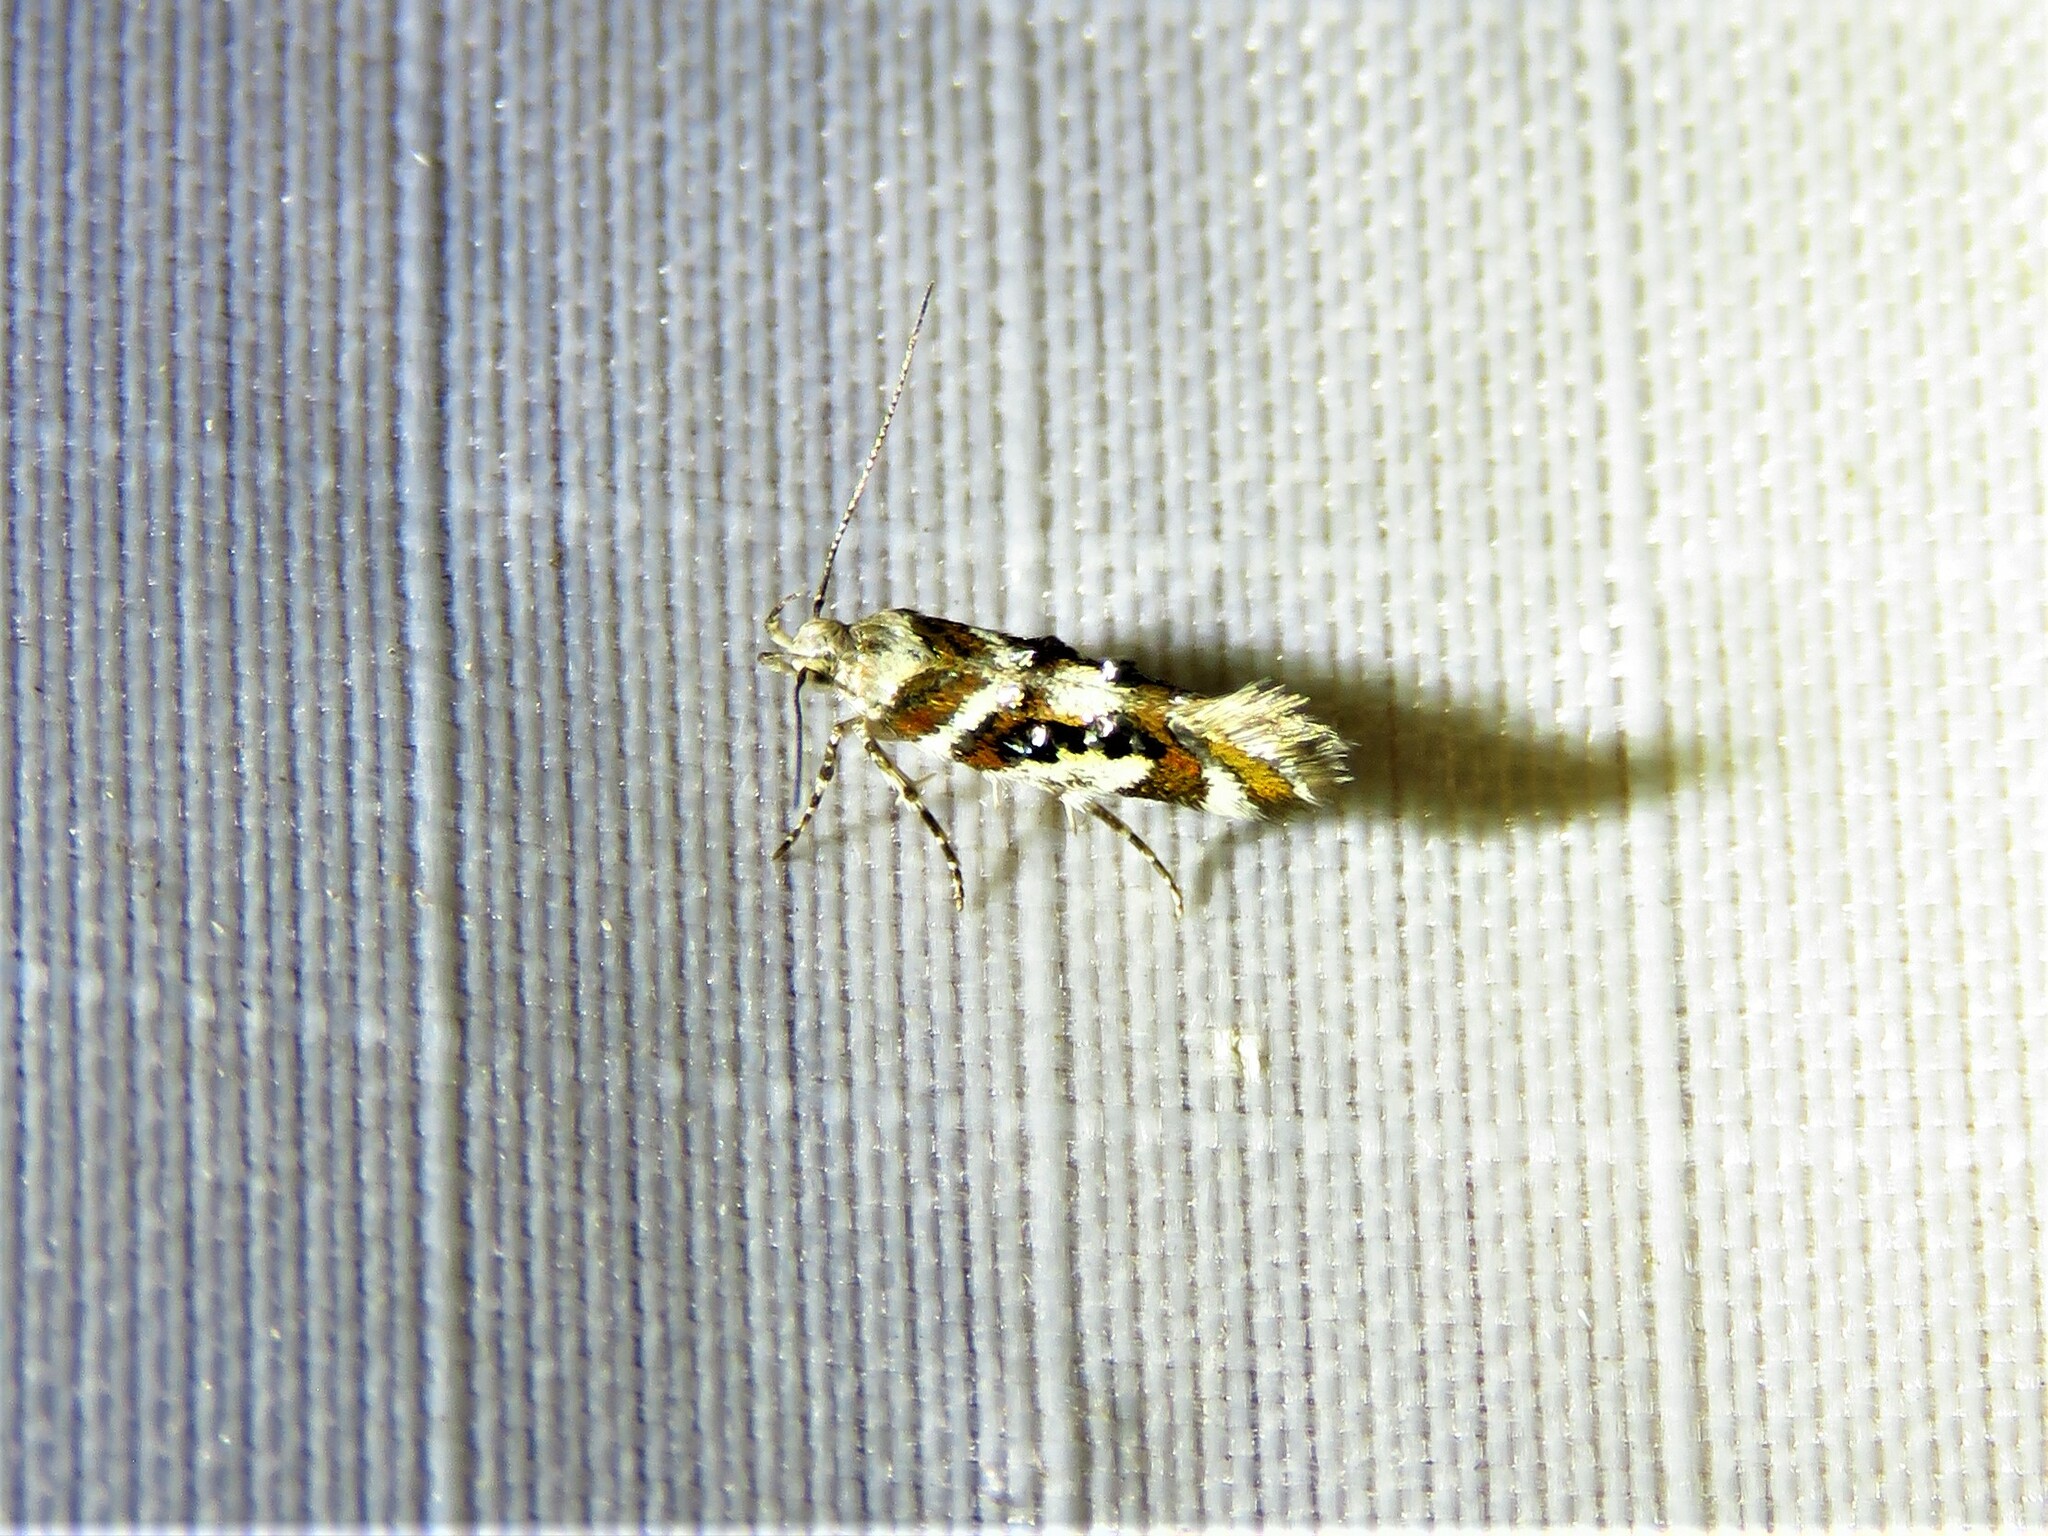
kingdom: Animalia
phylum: Arthropoda
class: Insecta
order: Lepidoptera
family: Gelechiidae
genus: Aristotelia
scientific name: Aristotelia elegantella
